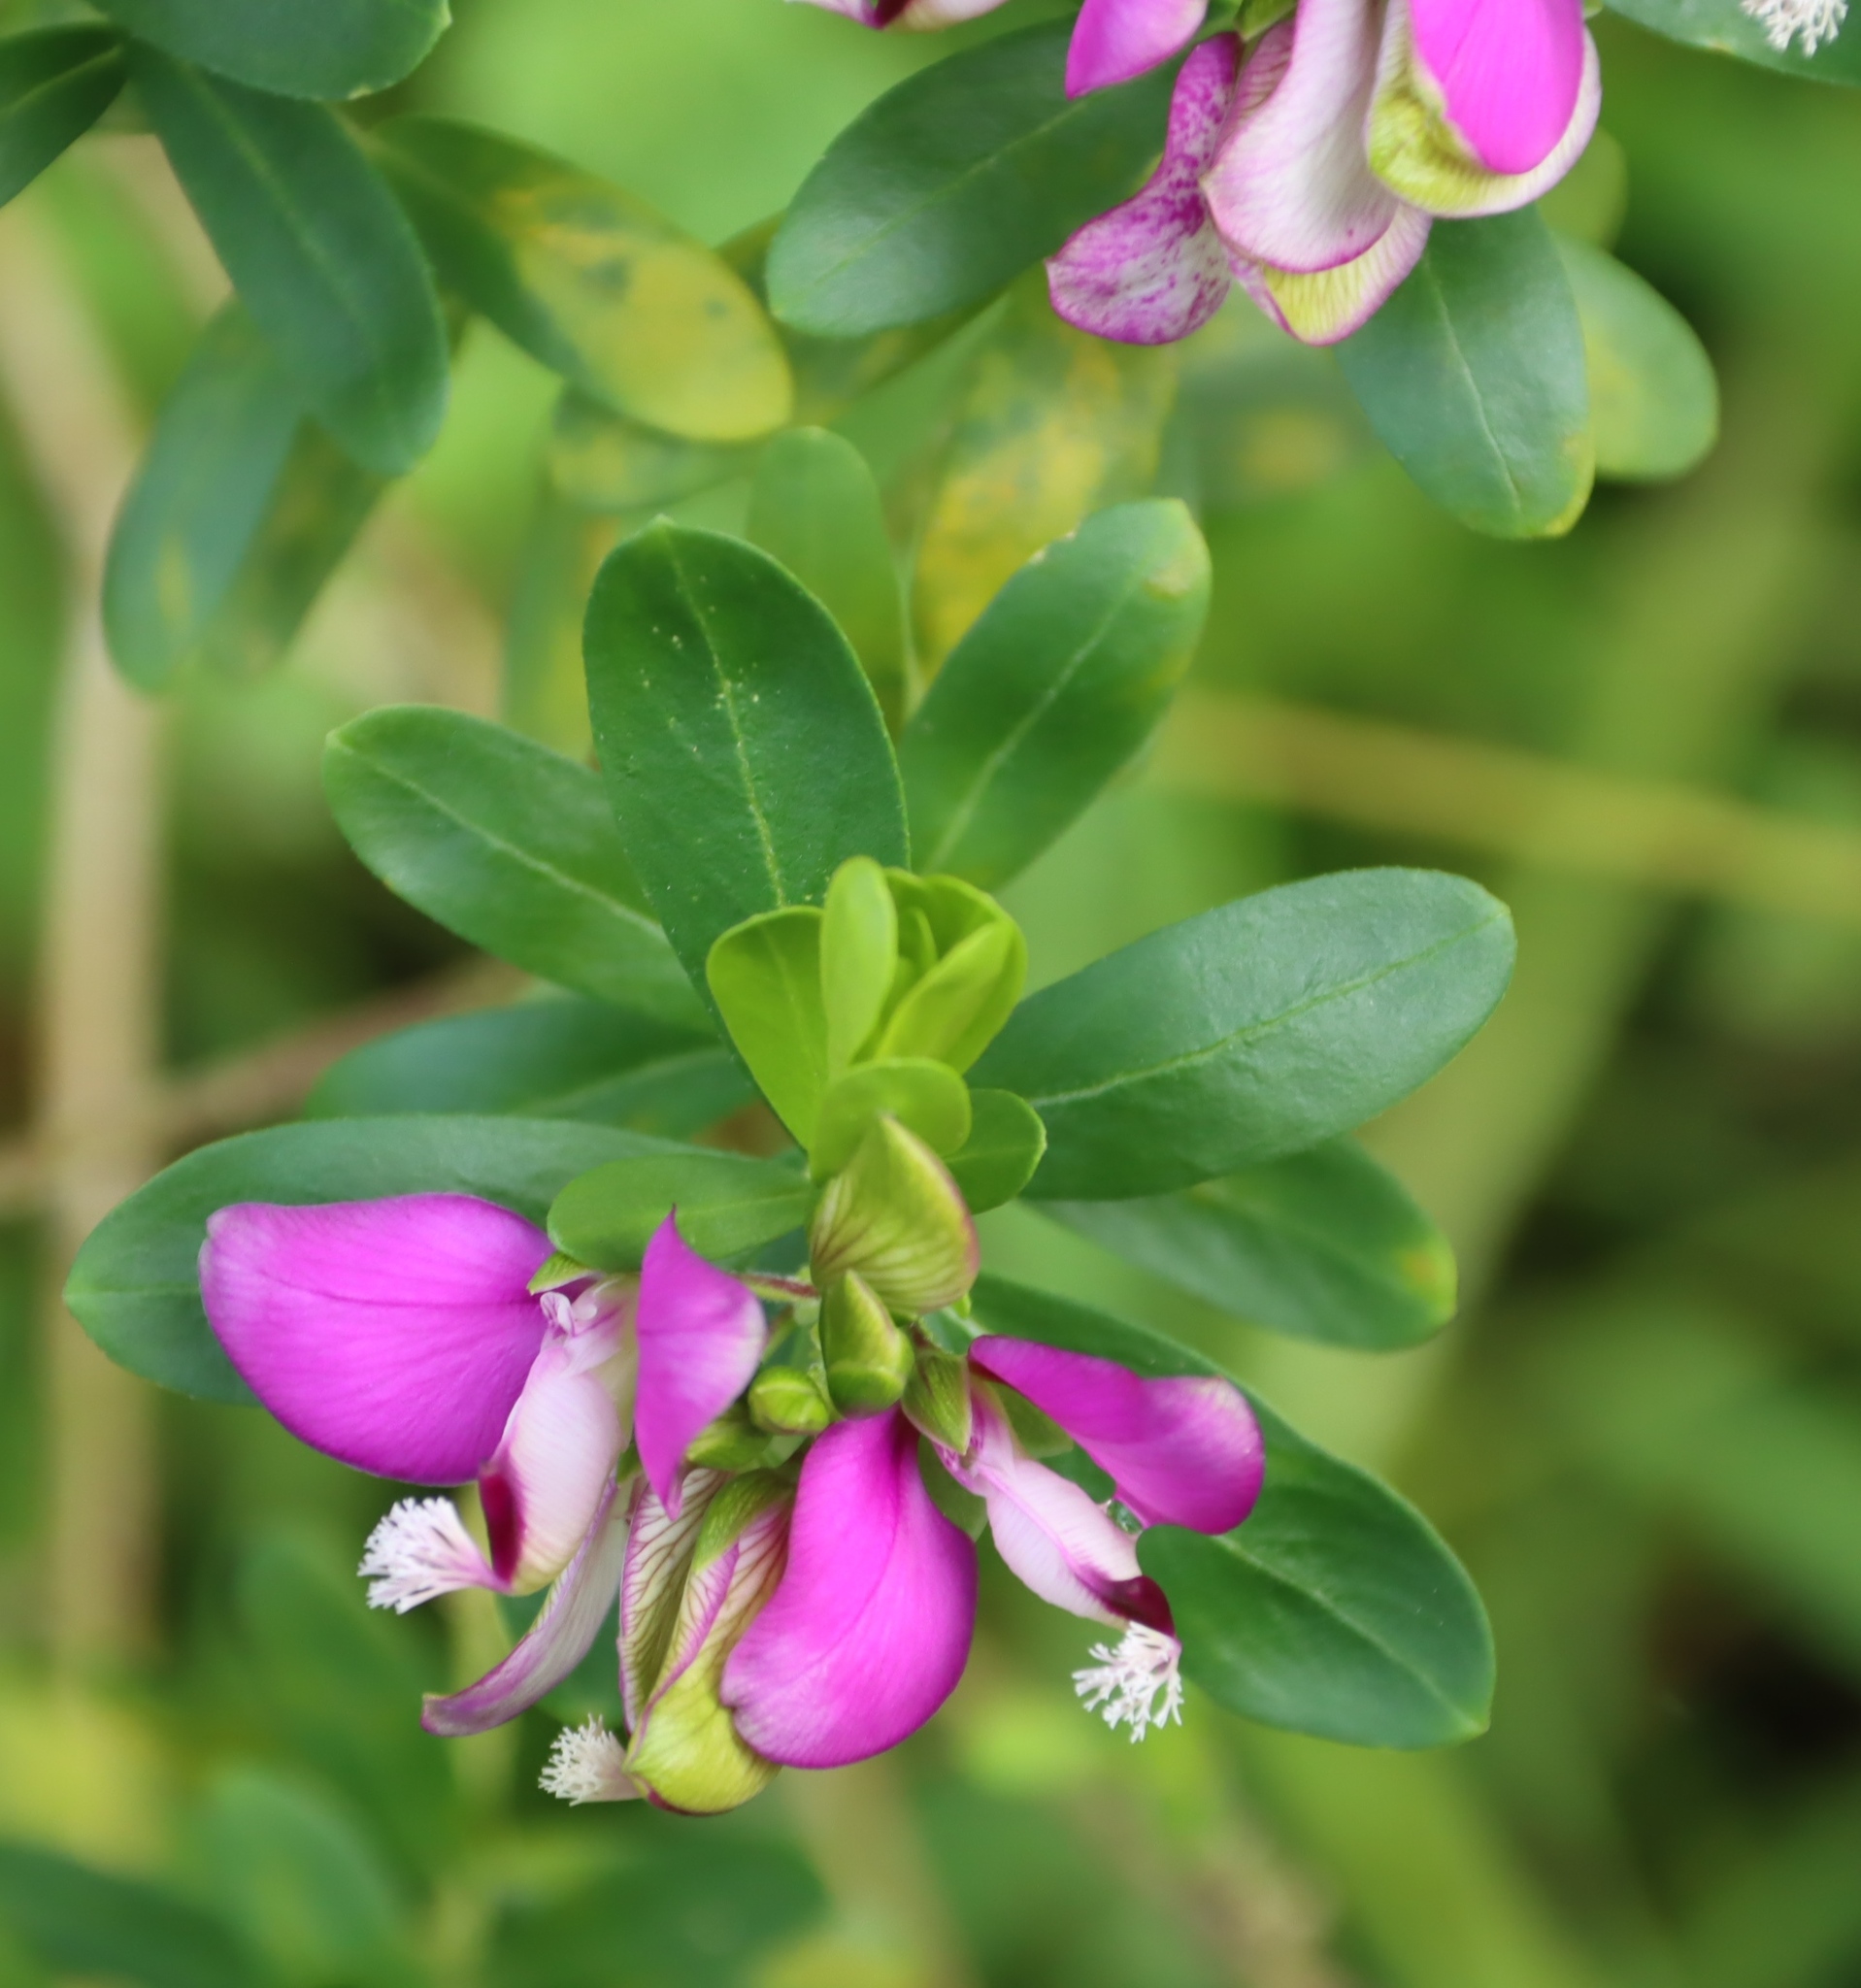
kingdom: Plantae
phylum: Tracheophyta
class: Magnoliopsida
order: Fabales
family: Polygalaceae
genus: Polygala
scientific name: Polygala myrtifolia
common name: Myrtle-leaf milkwort
